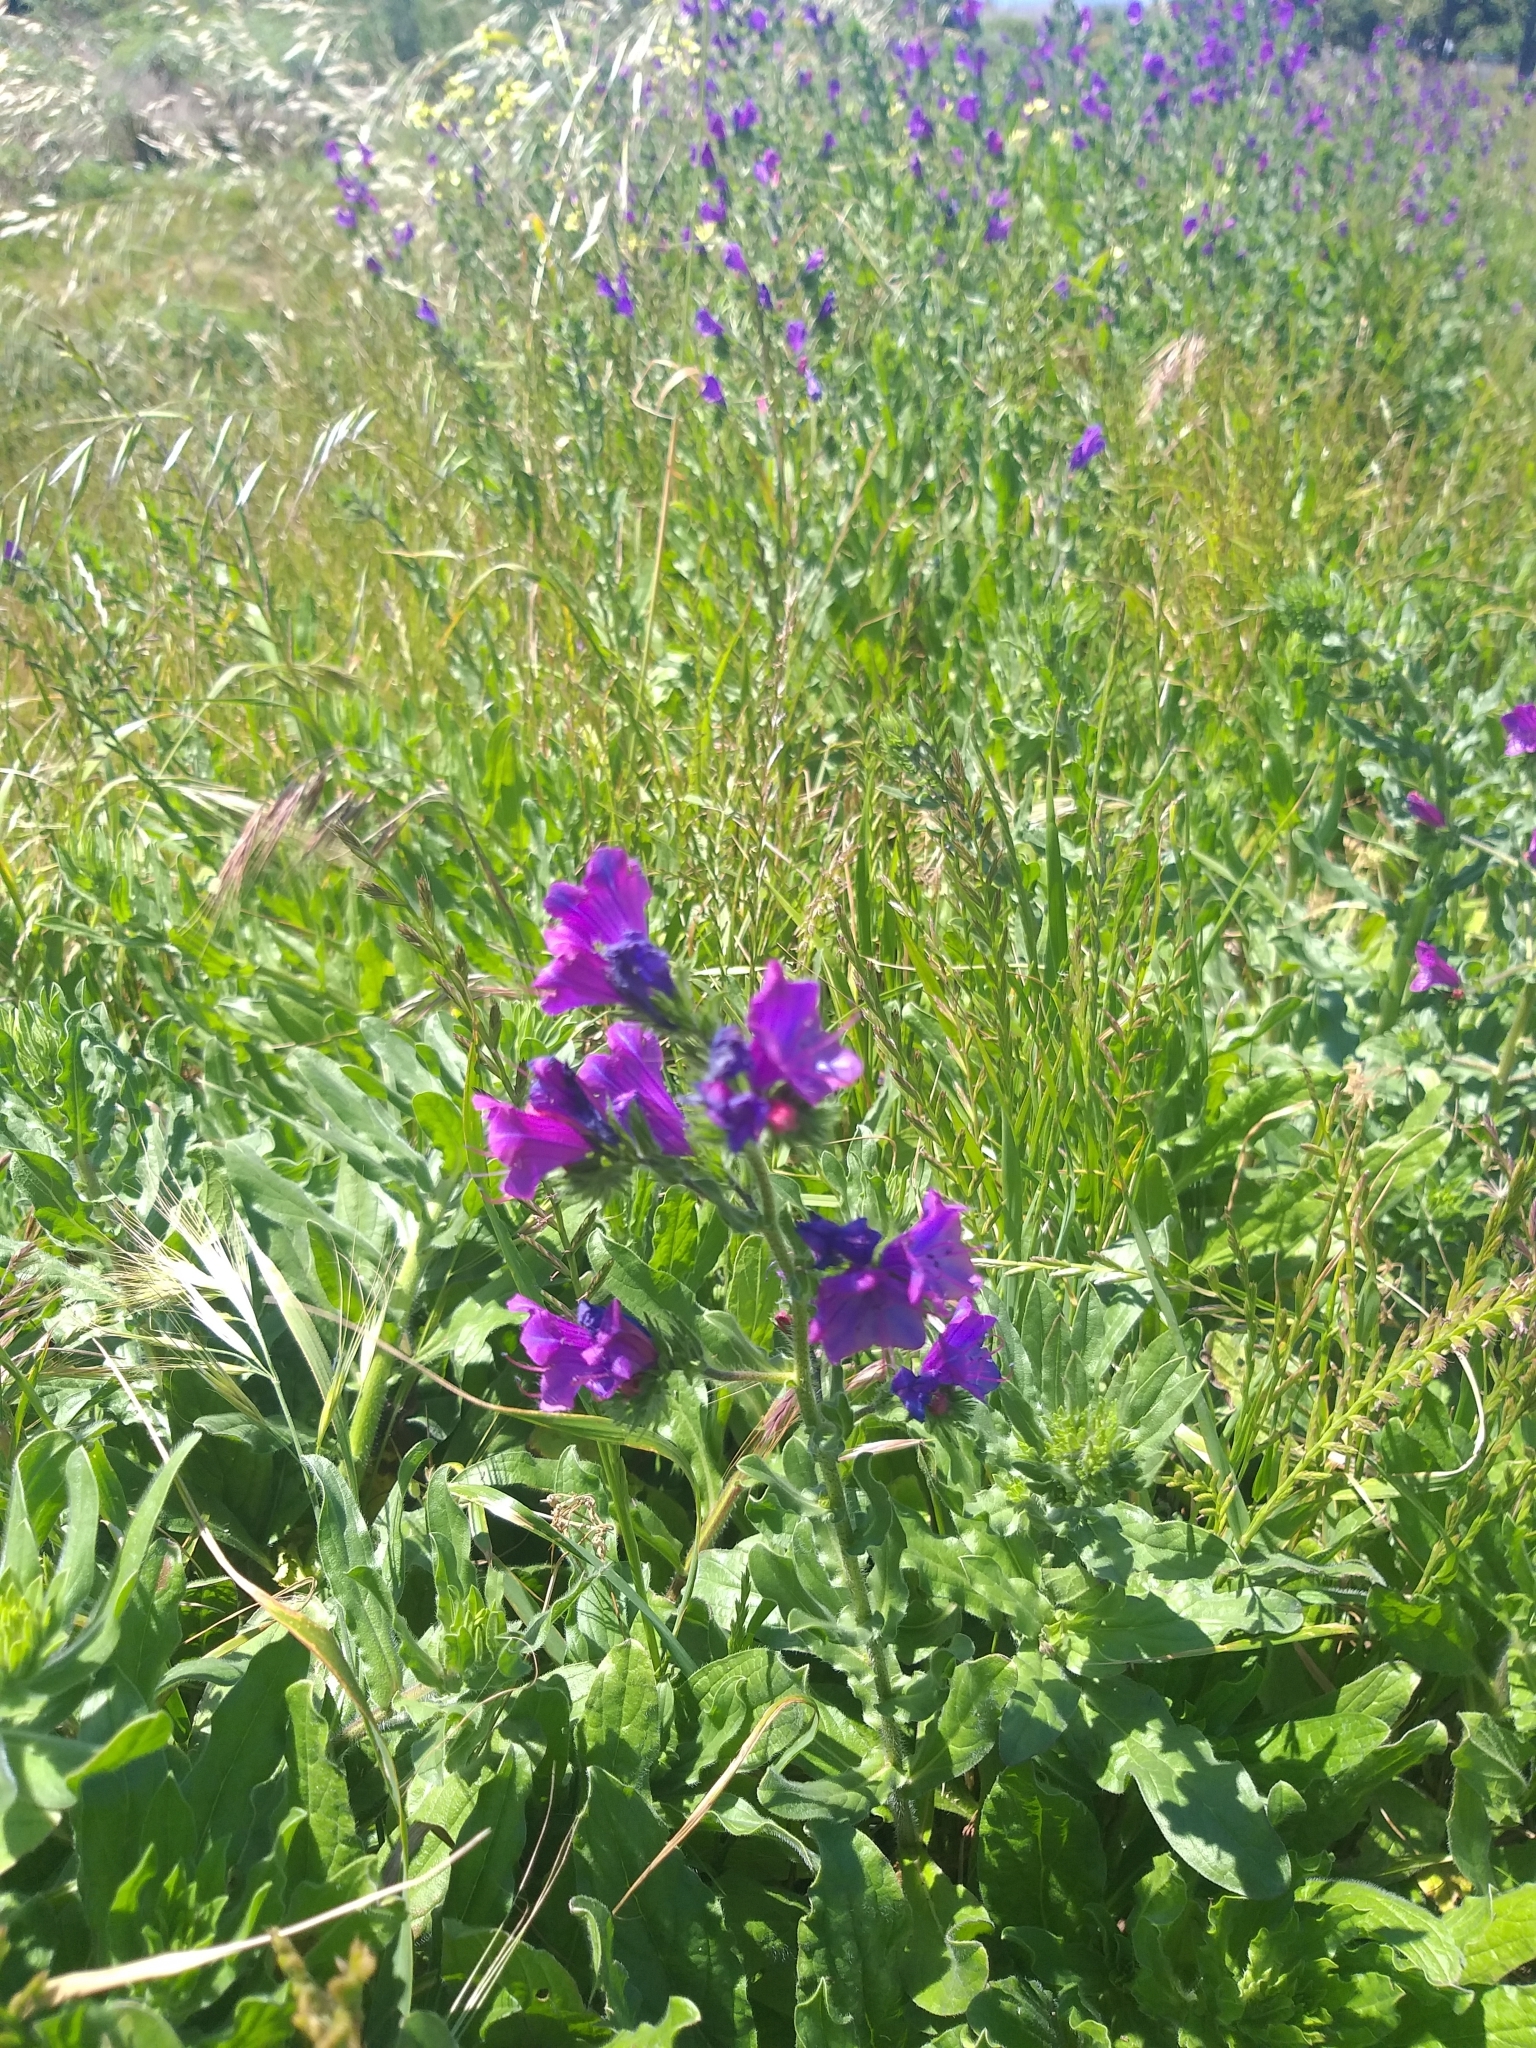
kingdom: Plantae
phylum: Tracheophyta
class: Magnoliopsida
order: Boraginales
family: Boraginaceae
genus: Echium
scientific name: Echium plantagineum
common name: Purple viper's-bugloss
